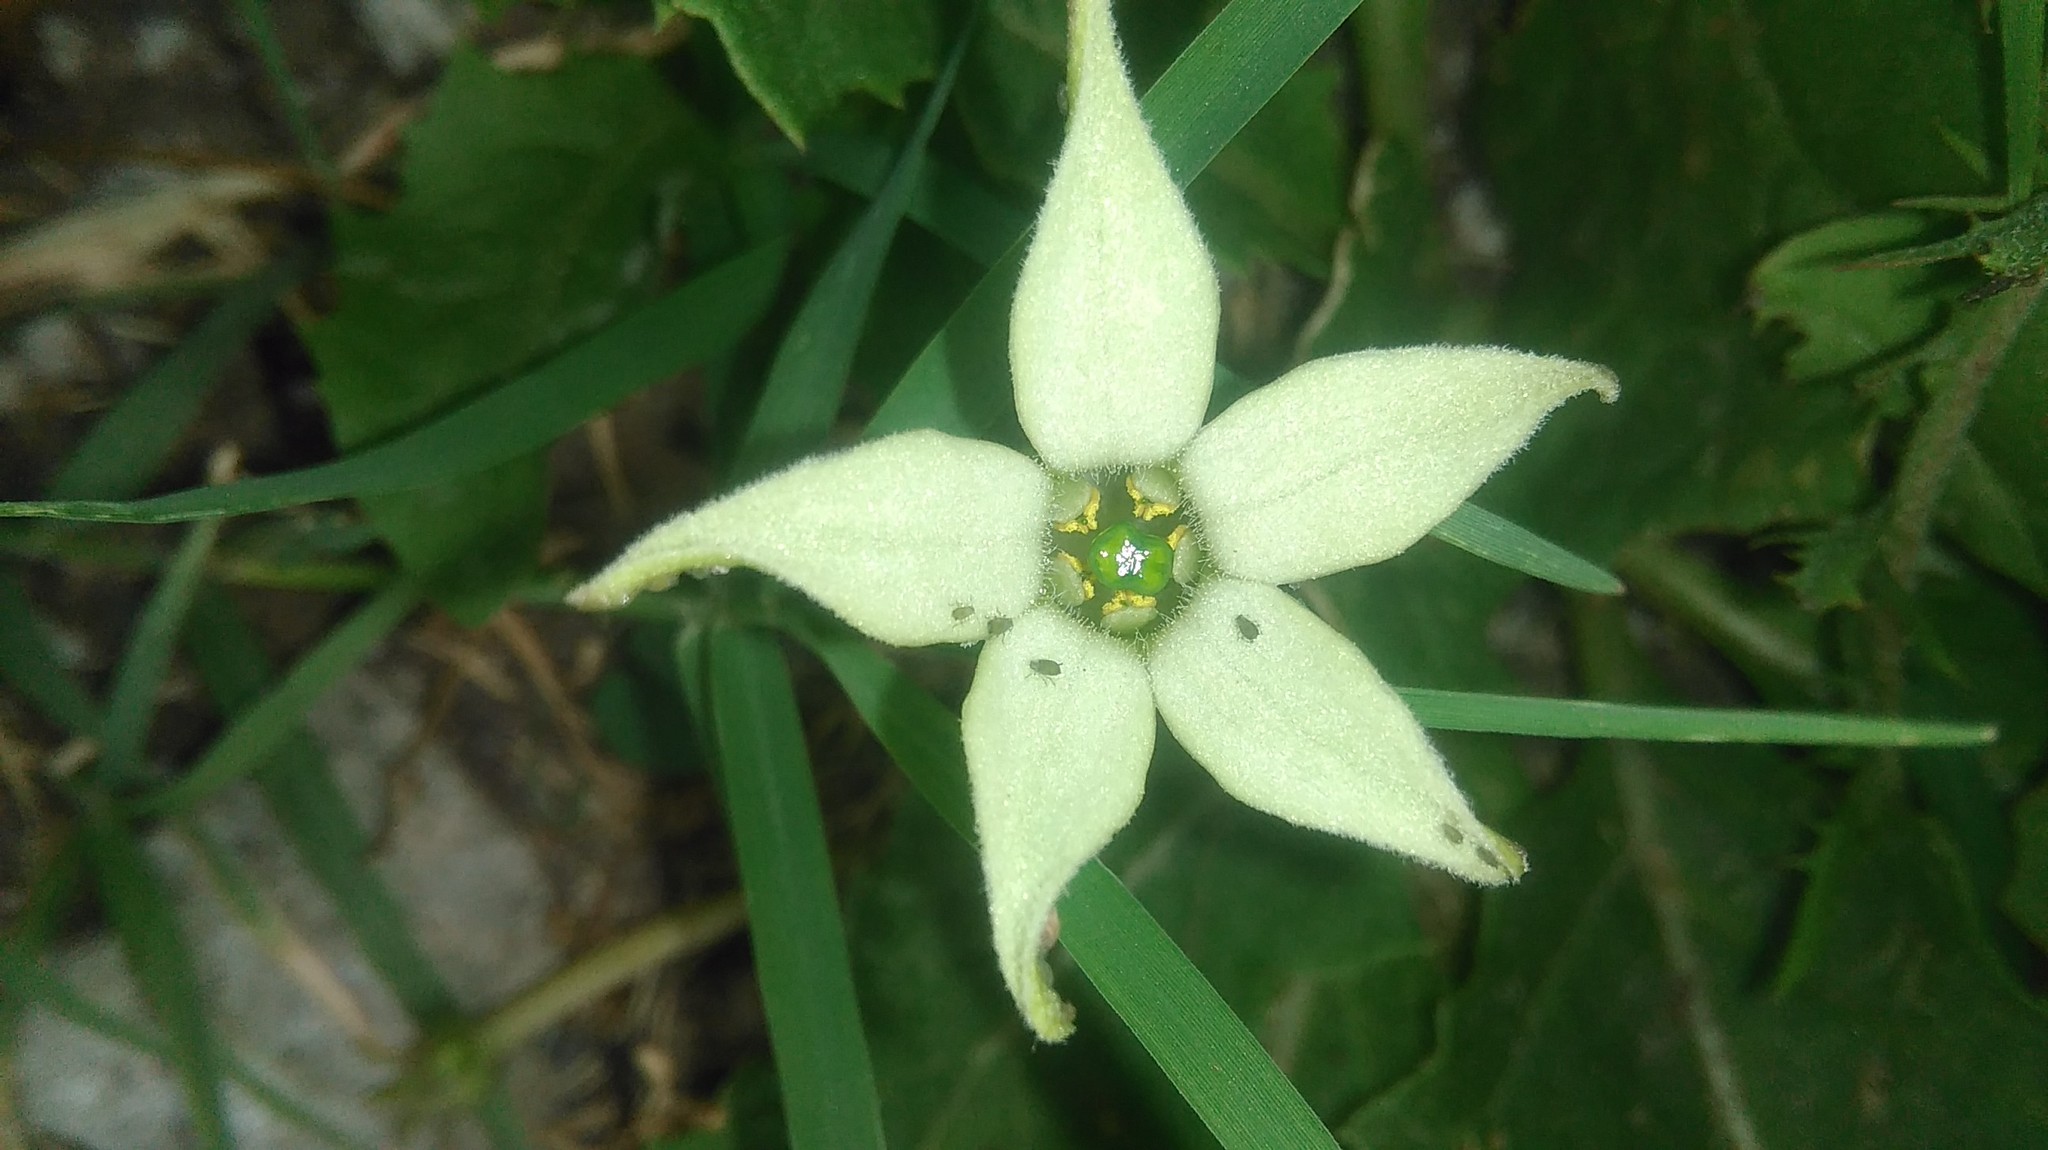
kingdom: Plantae
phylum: Tracheophyta
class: Magnoliopsida
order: Solanales
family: Solanaceae
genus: Jaborosa
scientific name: Jaborosa runcinata
